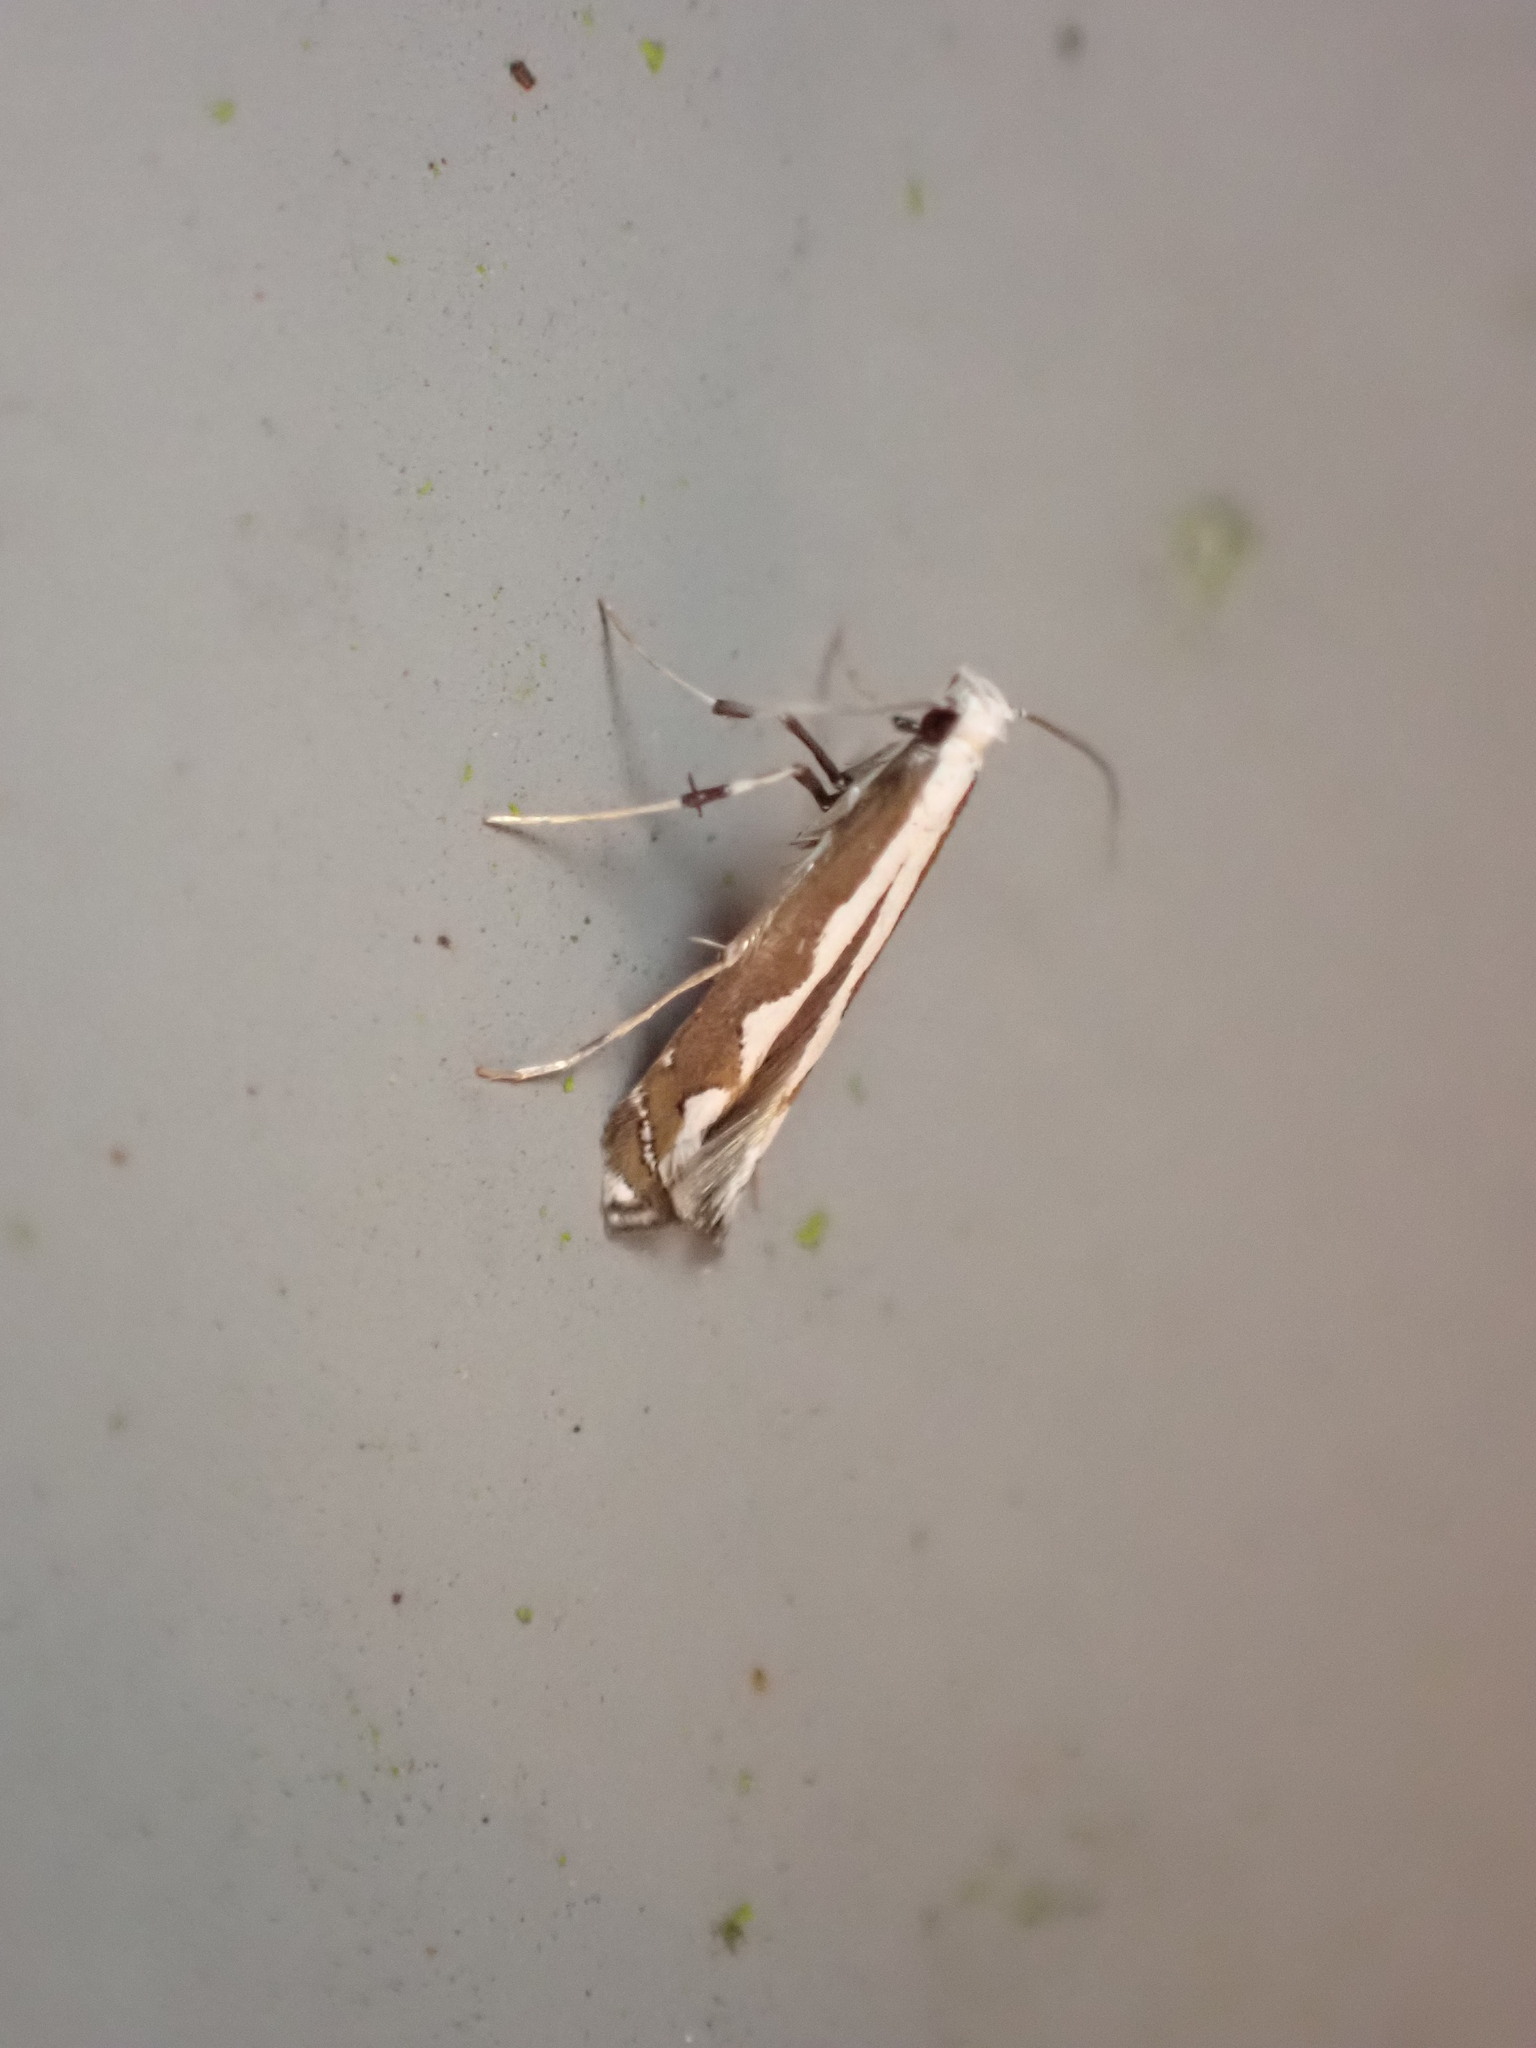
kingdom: Animalia
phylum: Arthropoda
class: Insecta
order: Lepidoptera
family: Gracillariidae
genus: Dialectica
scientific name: Dialectica scalariella
